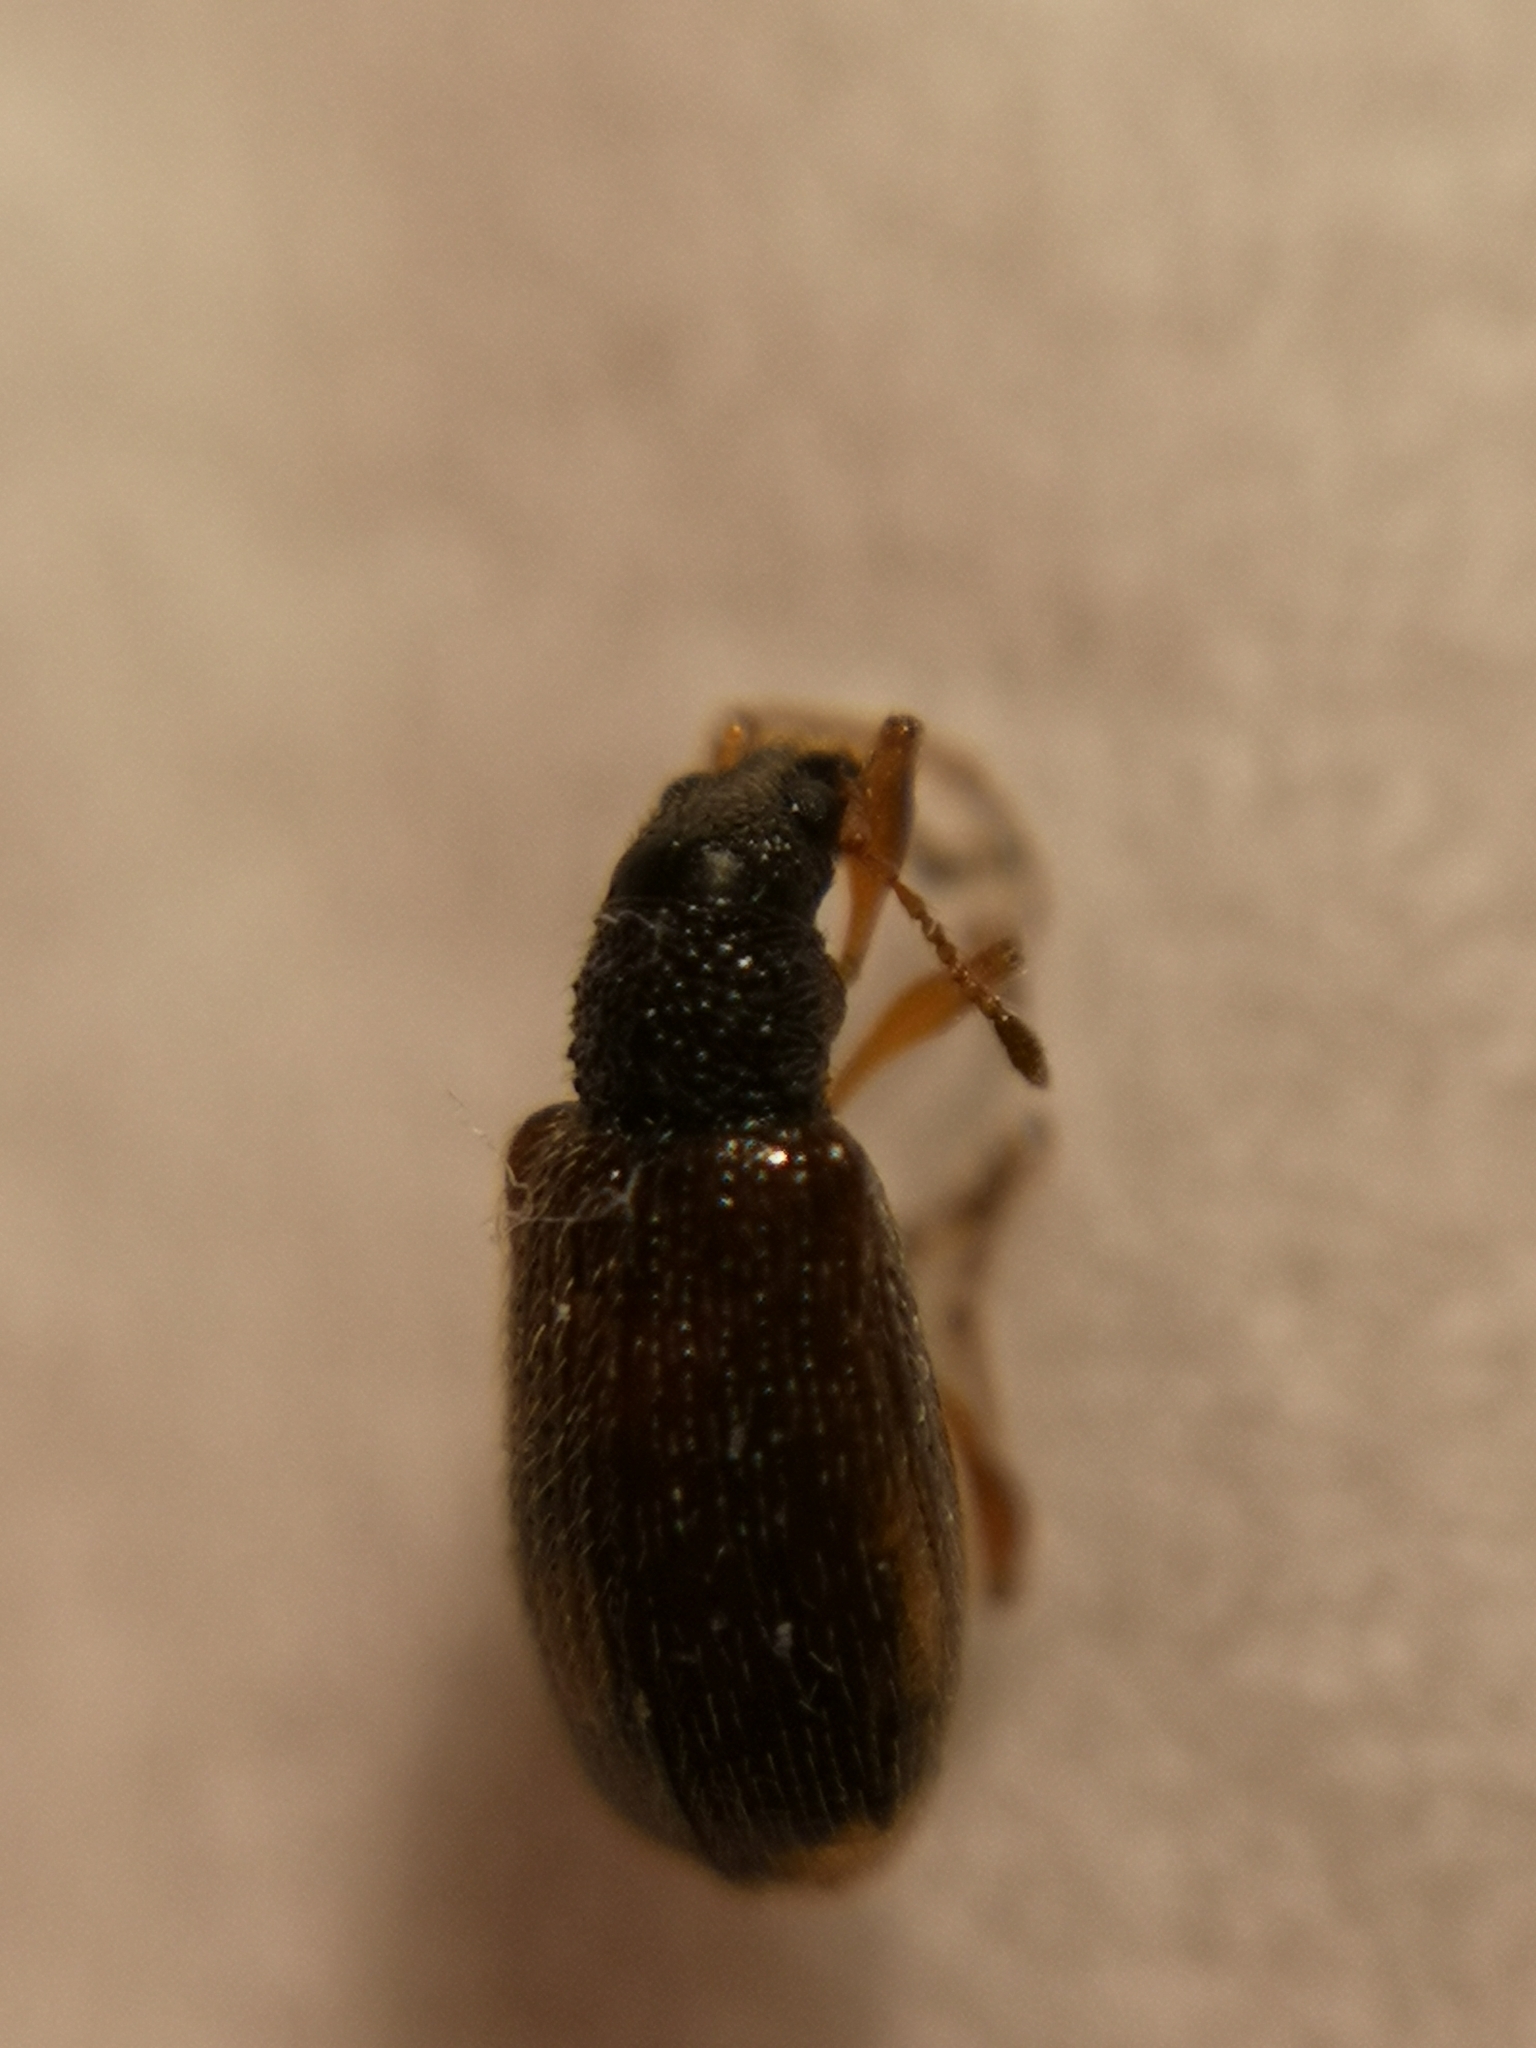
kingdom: Animalia
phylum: Arthropoda
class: Insecta
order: Coleoptera
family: Curculionidae
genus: Phyllobius
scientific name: Phyllobius oblongus
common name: Brown leaf weevil
